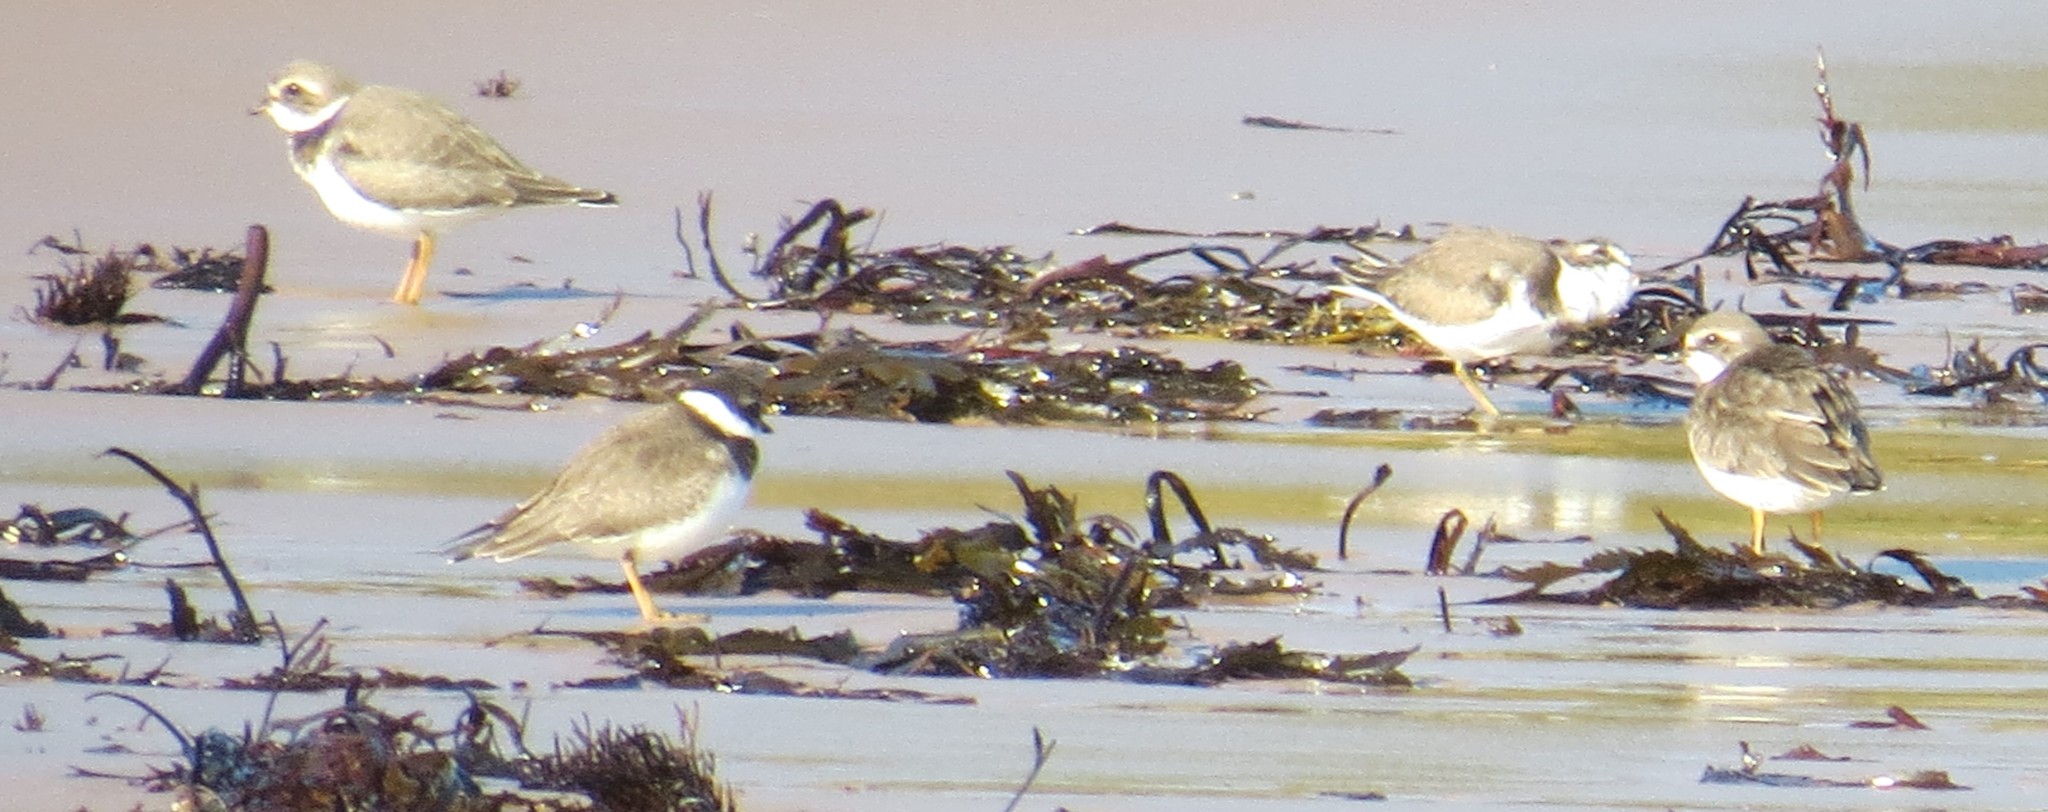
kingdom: Animalia
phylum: Chordata
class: Aves
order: Charadriiformes
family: Charadriidae
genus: Charadrius
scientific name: Charadrius semipalmatus
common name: Semipalmated plover
